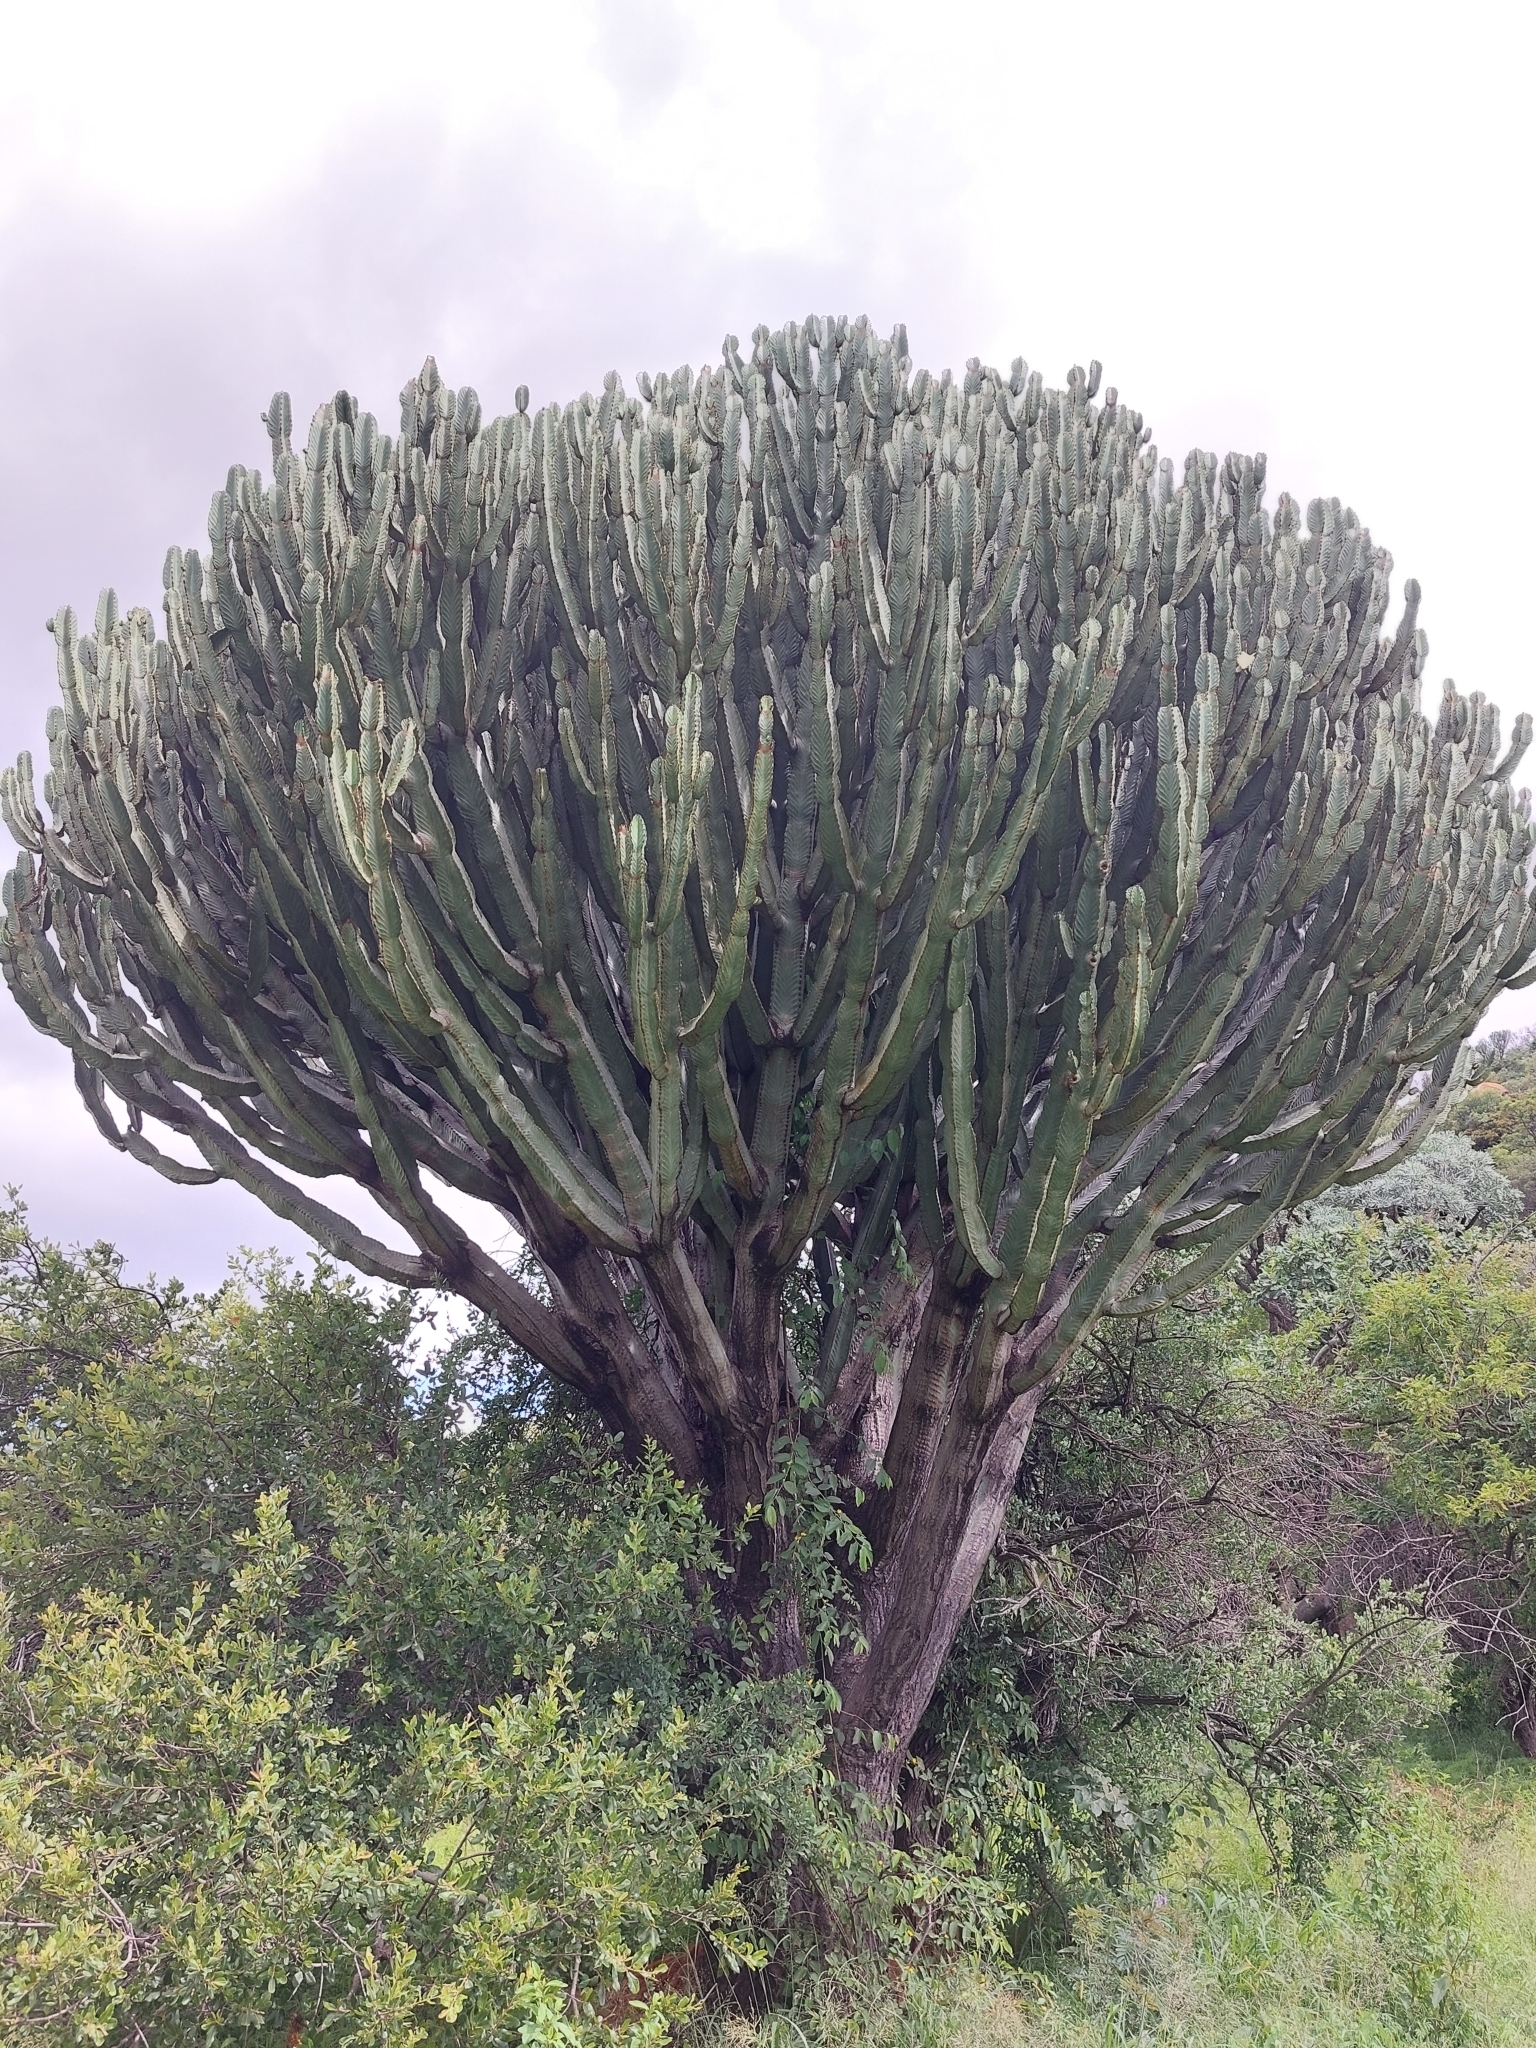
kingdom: Plantae
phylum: Tracheophyta
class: Magnoliopsida
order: Malpighiales
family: Euphorbiaceae
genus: Euphorbia
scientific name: Euphorbia ingens
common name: Cactus spurge
